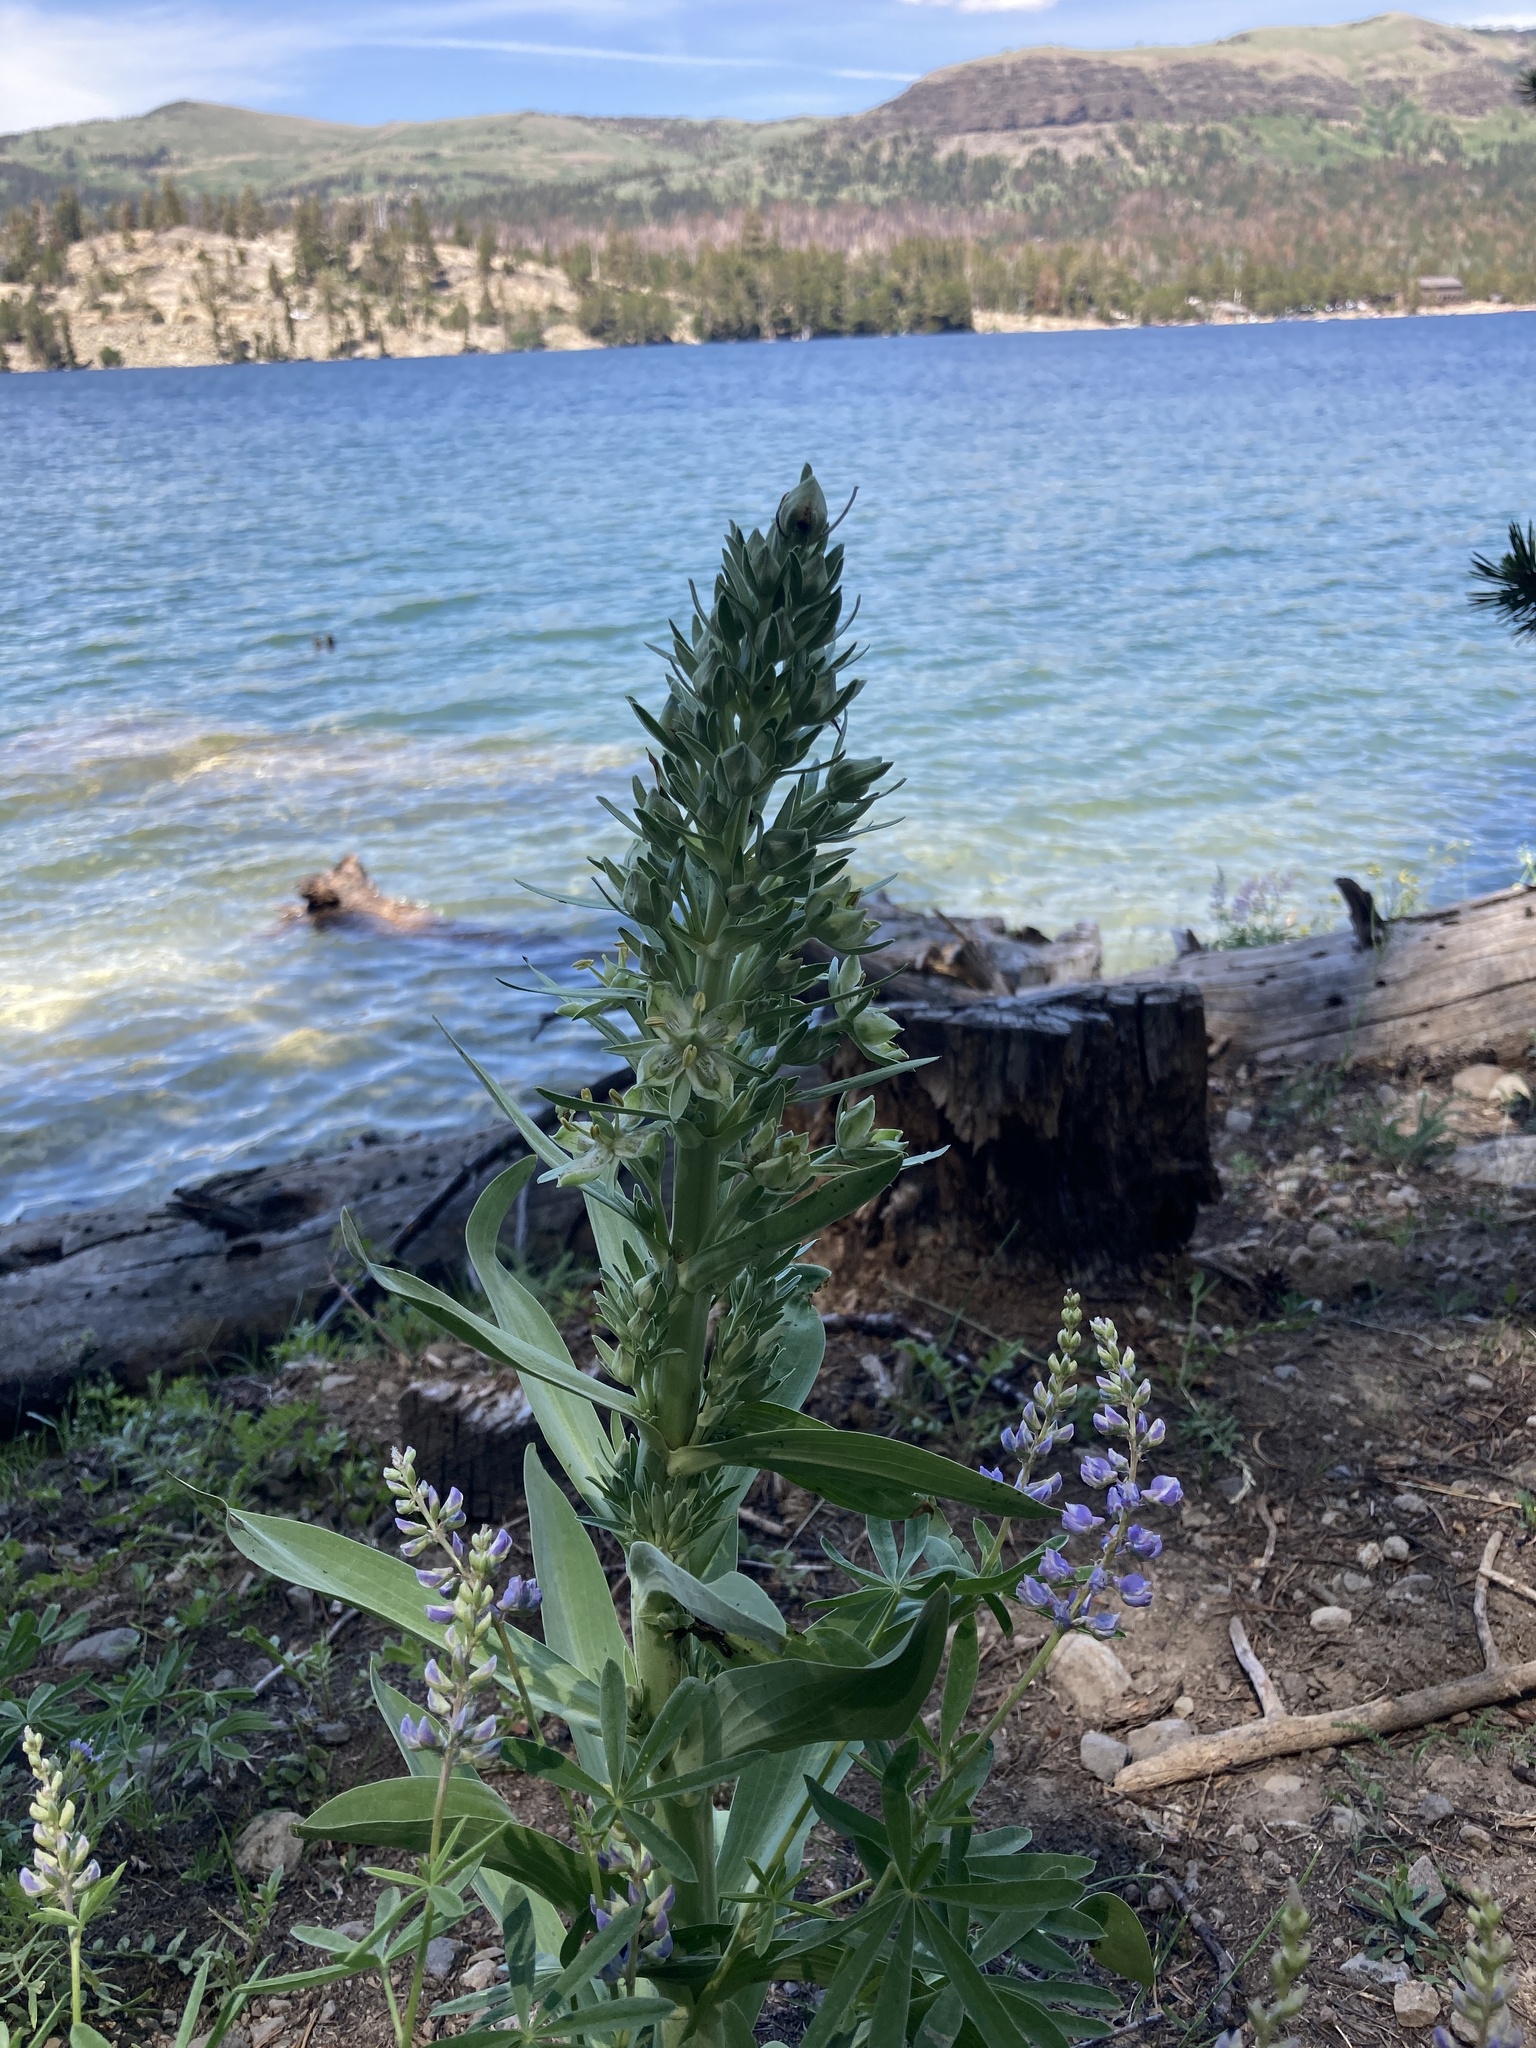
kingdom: Plantae
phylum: Tracheophyta
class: Magnoliopsida
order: Gentianales
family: Gentianaceae
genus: Frasera
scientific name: Frasera speciosa
